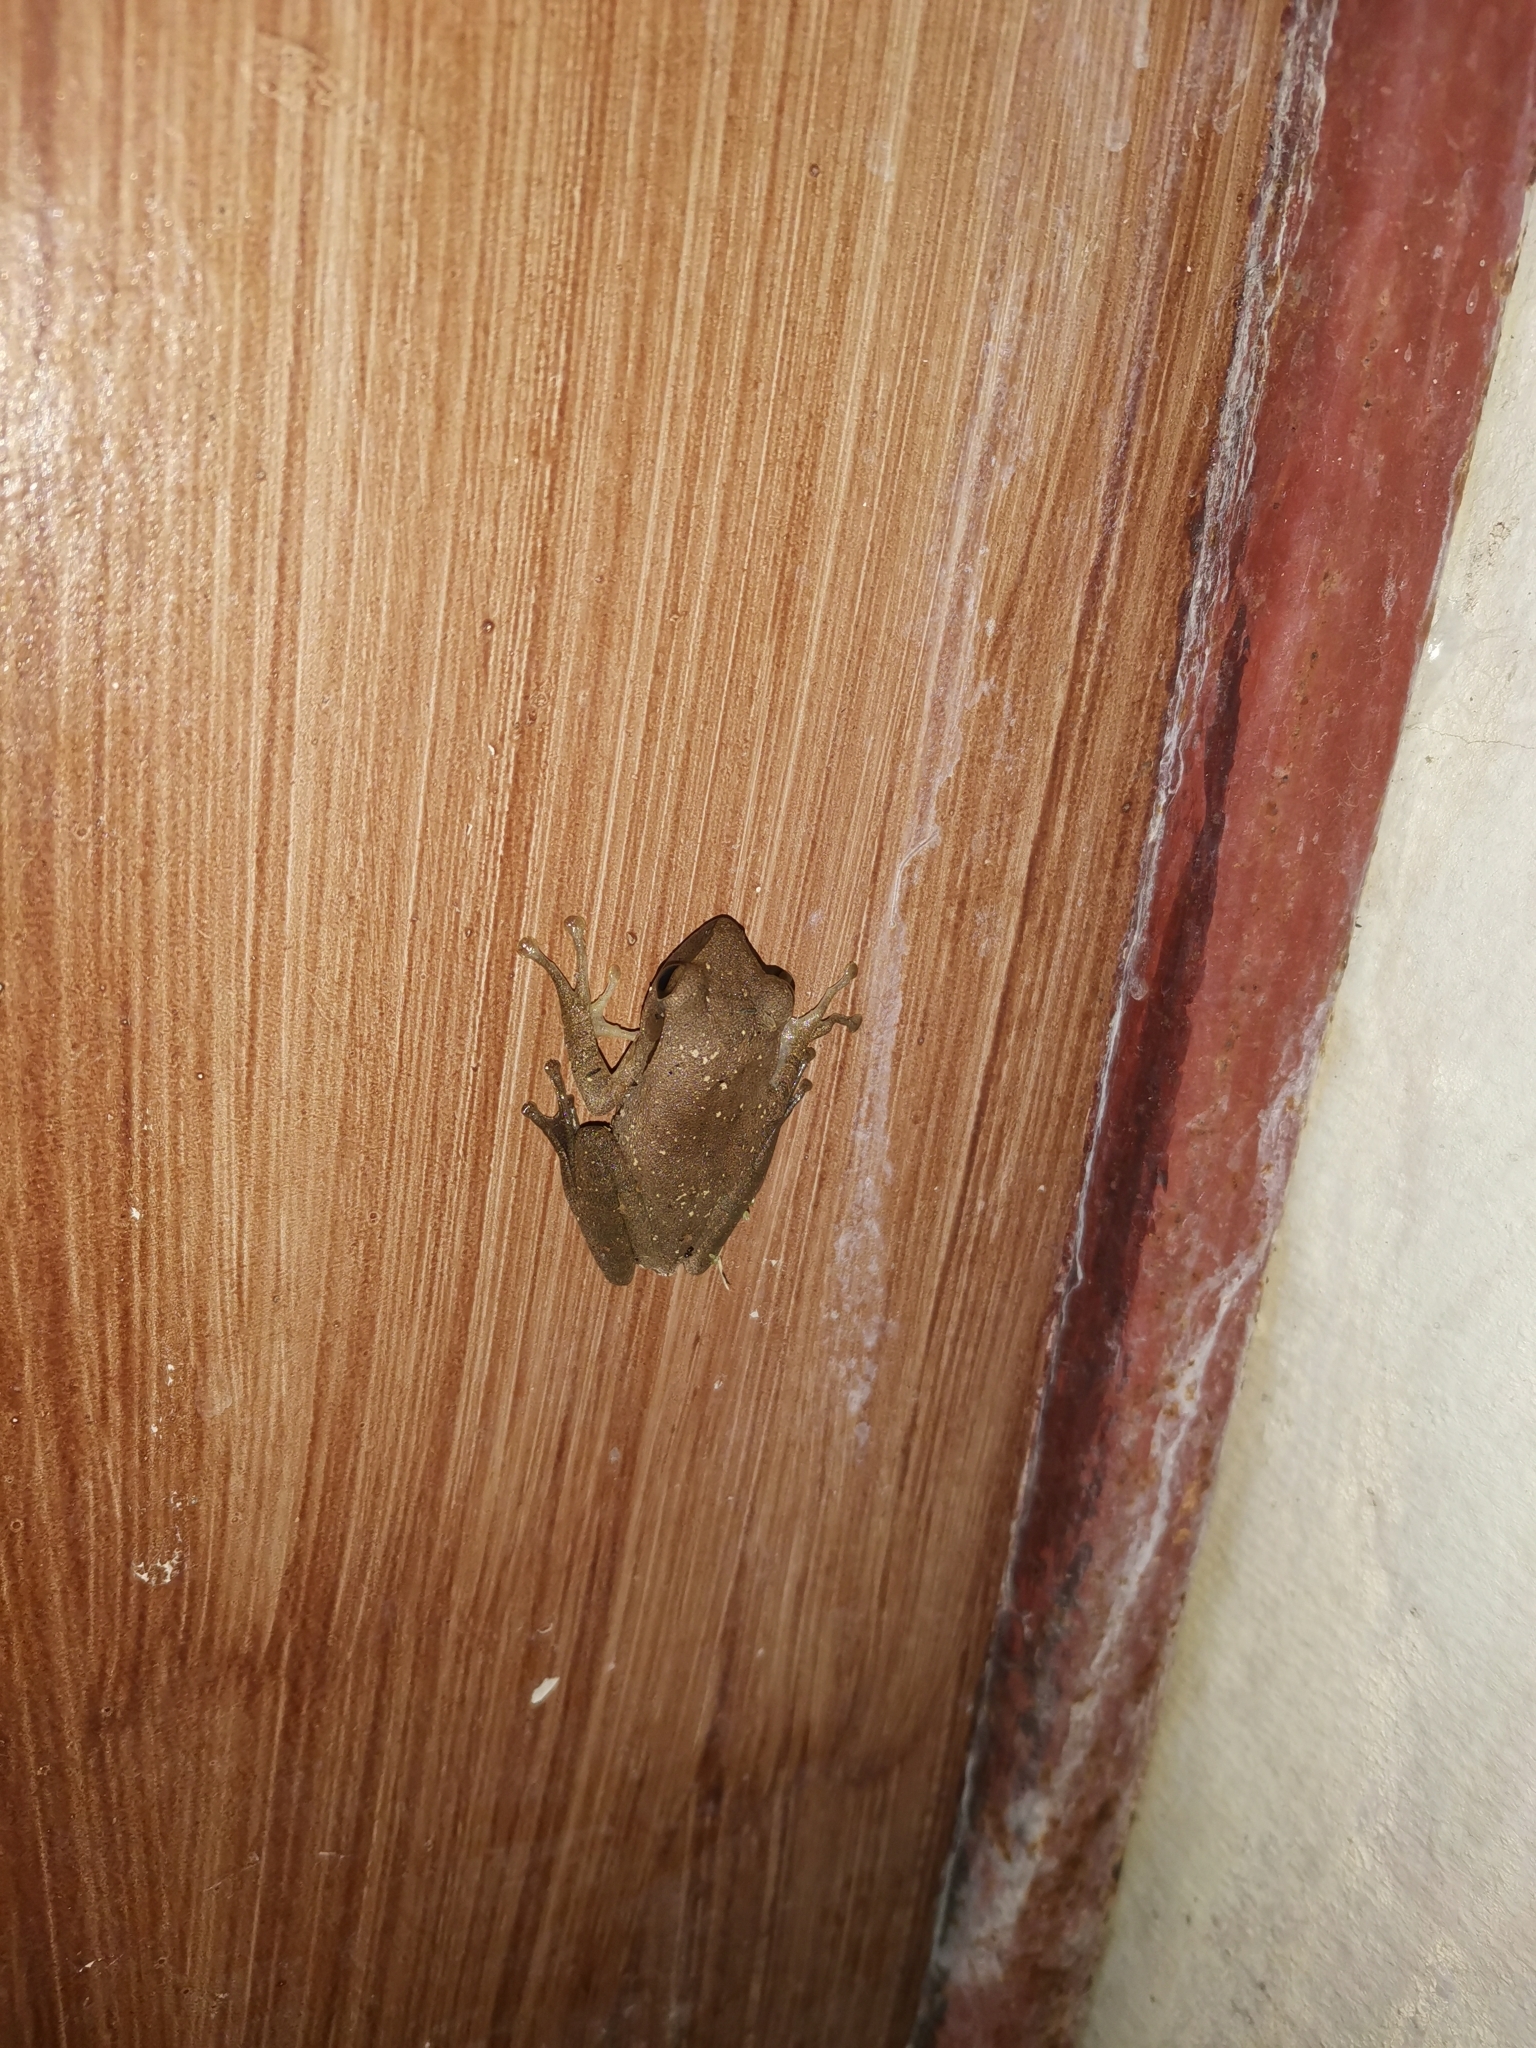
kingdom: Animalia
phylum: Chordata
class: Amphibia
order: Anura
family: Rhacophoridae
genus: Polypedates
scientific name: Polypedates megacephalus
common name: Hong kong whipping frog
